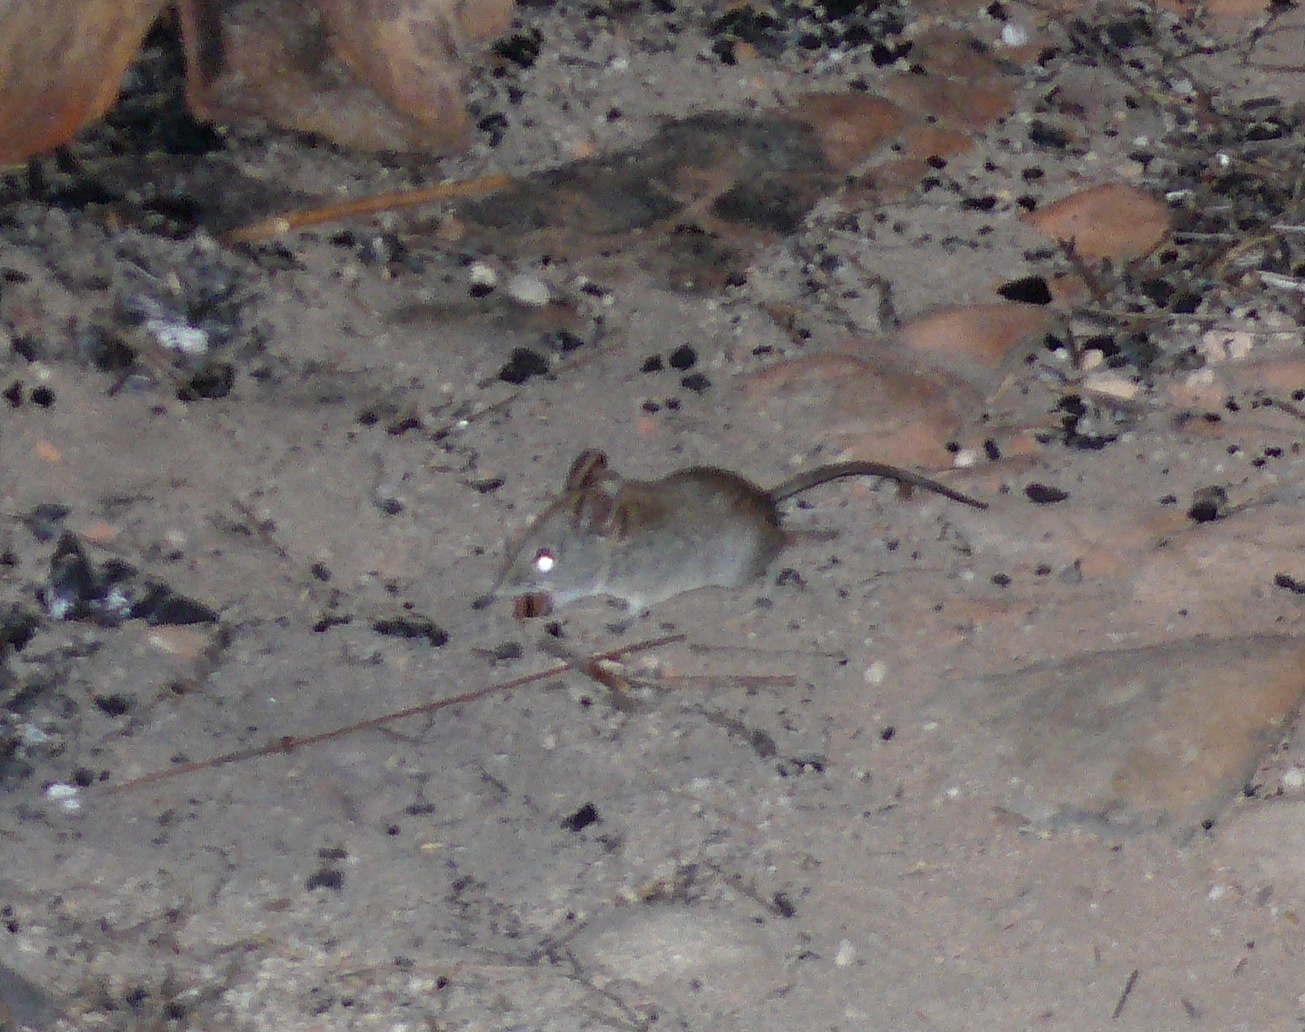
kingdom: Animalia
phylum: Chordata
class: Mammalia
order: Macroscelidea
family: Macroscelididae
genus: Elephantulus
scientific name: Elephantulus edwardii
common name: Cape elephant shrew
